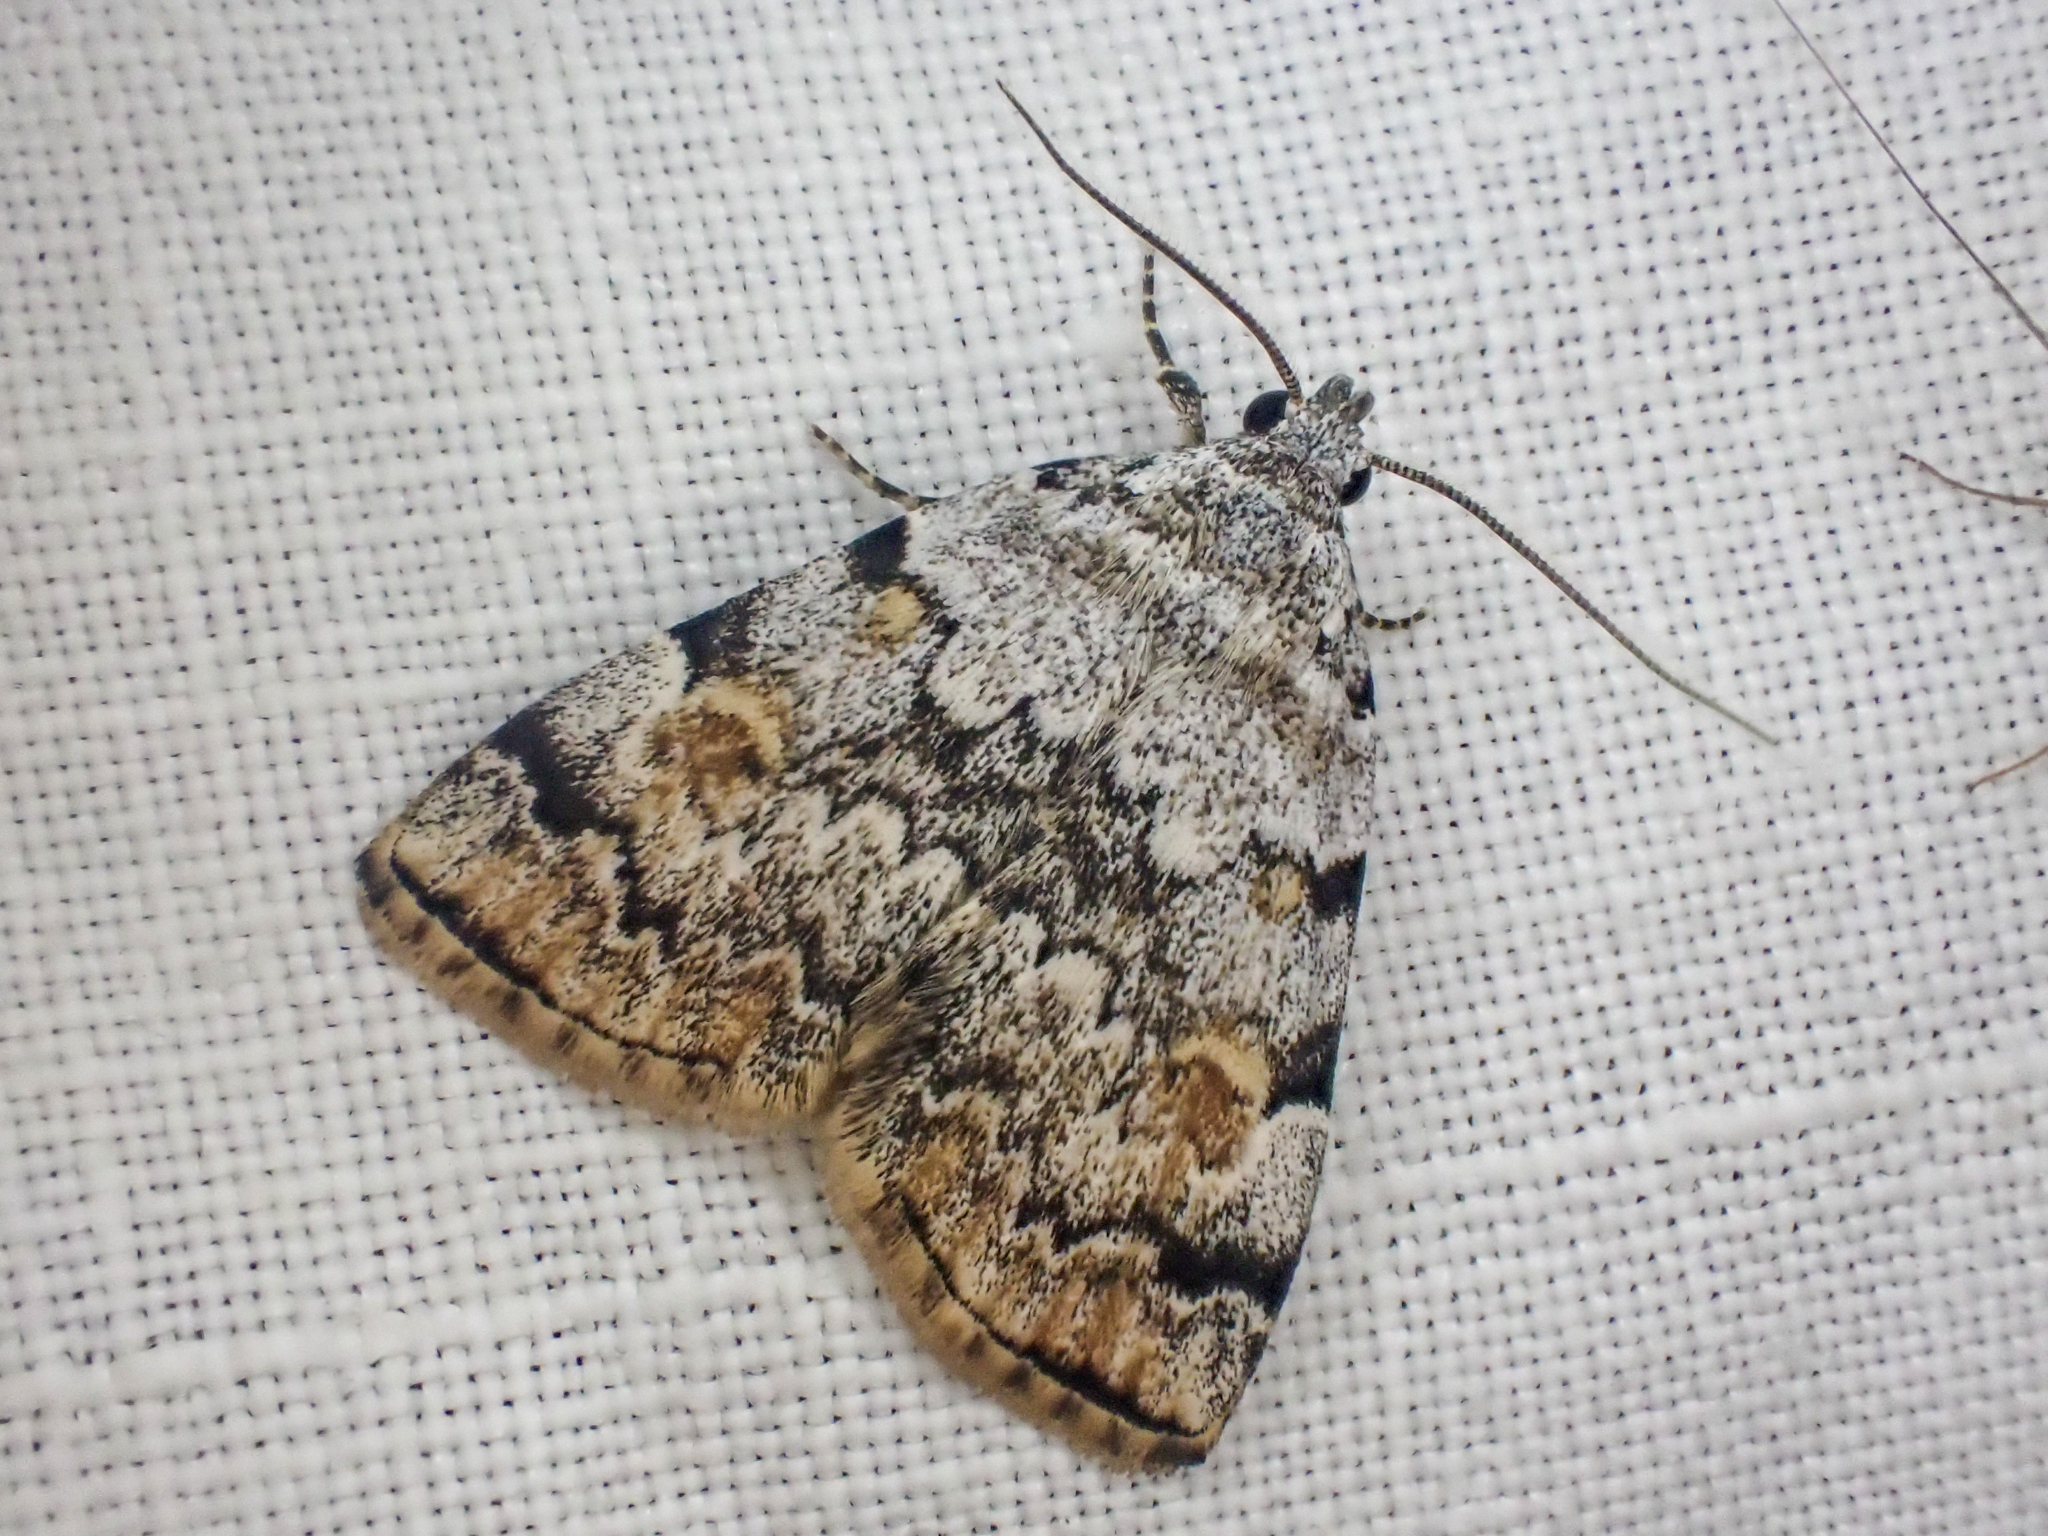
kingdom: Animalia
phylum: Arthropoda
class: Insecta
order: Lepidoptera
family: Erebidae
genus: Idia
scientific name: Idia americalis
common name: American idia moth
